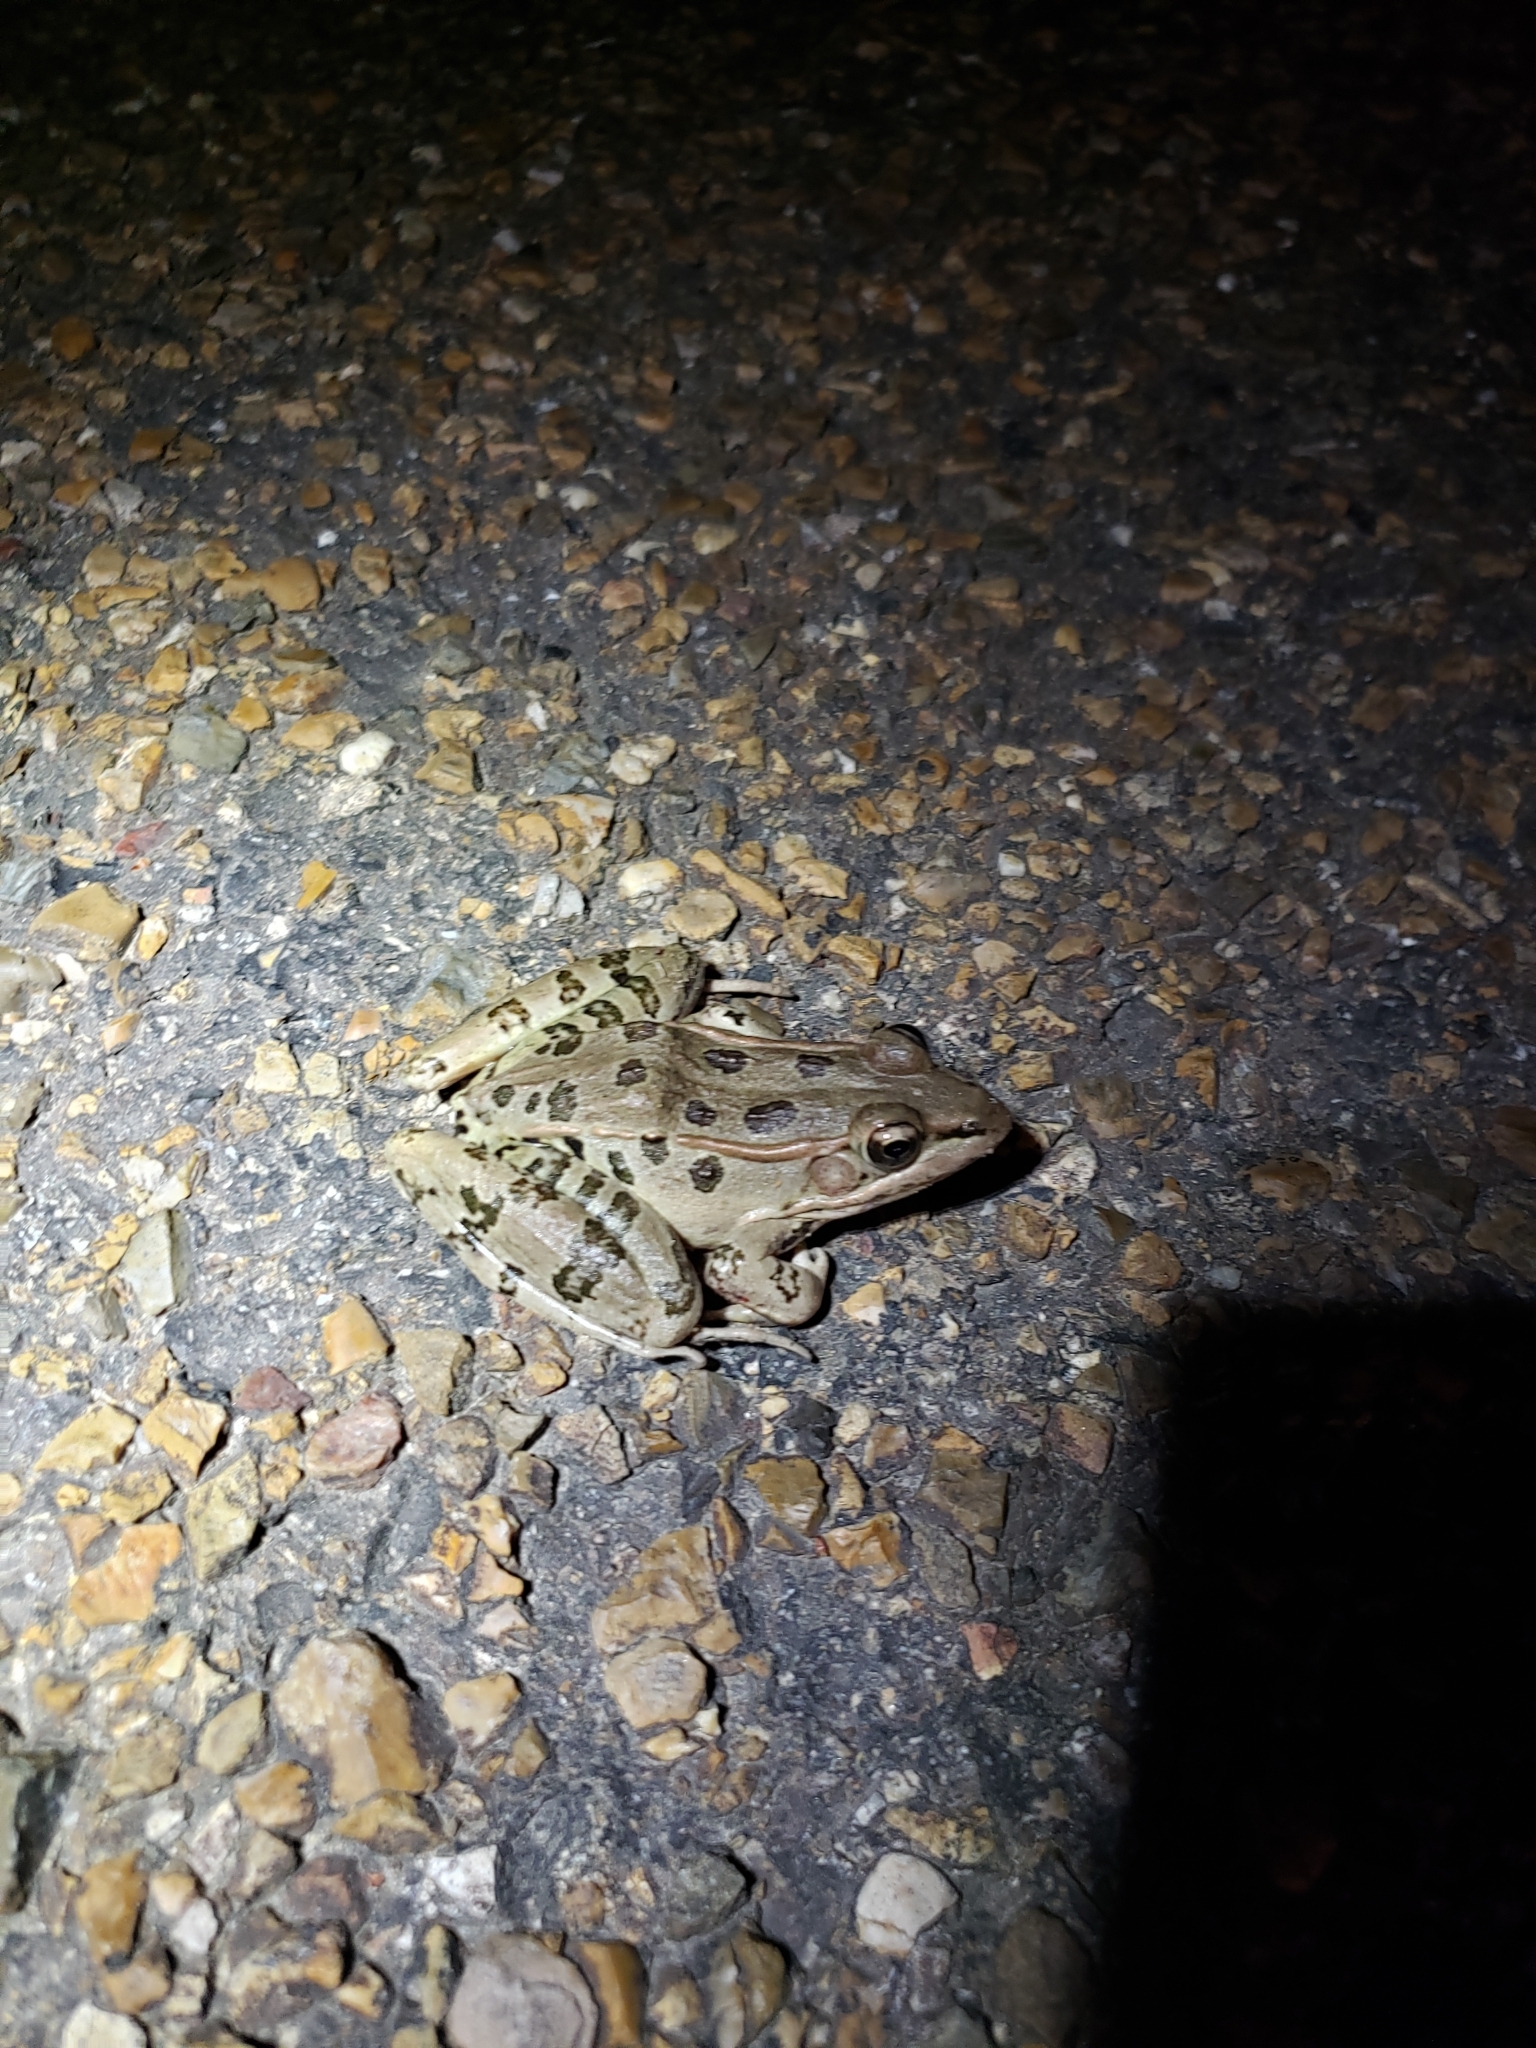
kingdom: Animalia
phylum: Chordata
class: Amphibia
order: Anura
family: Ranidae
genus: Lithobates
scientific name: Lithobates sphenocephalus
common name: Southern leopard frog
